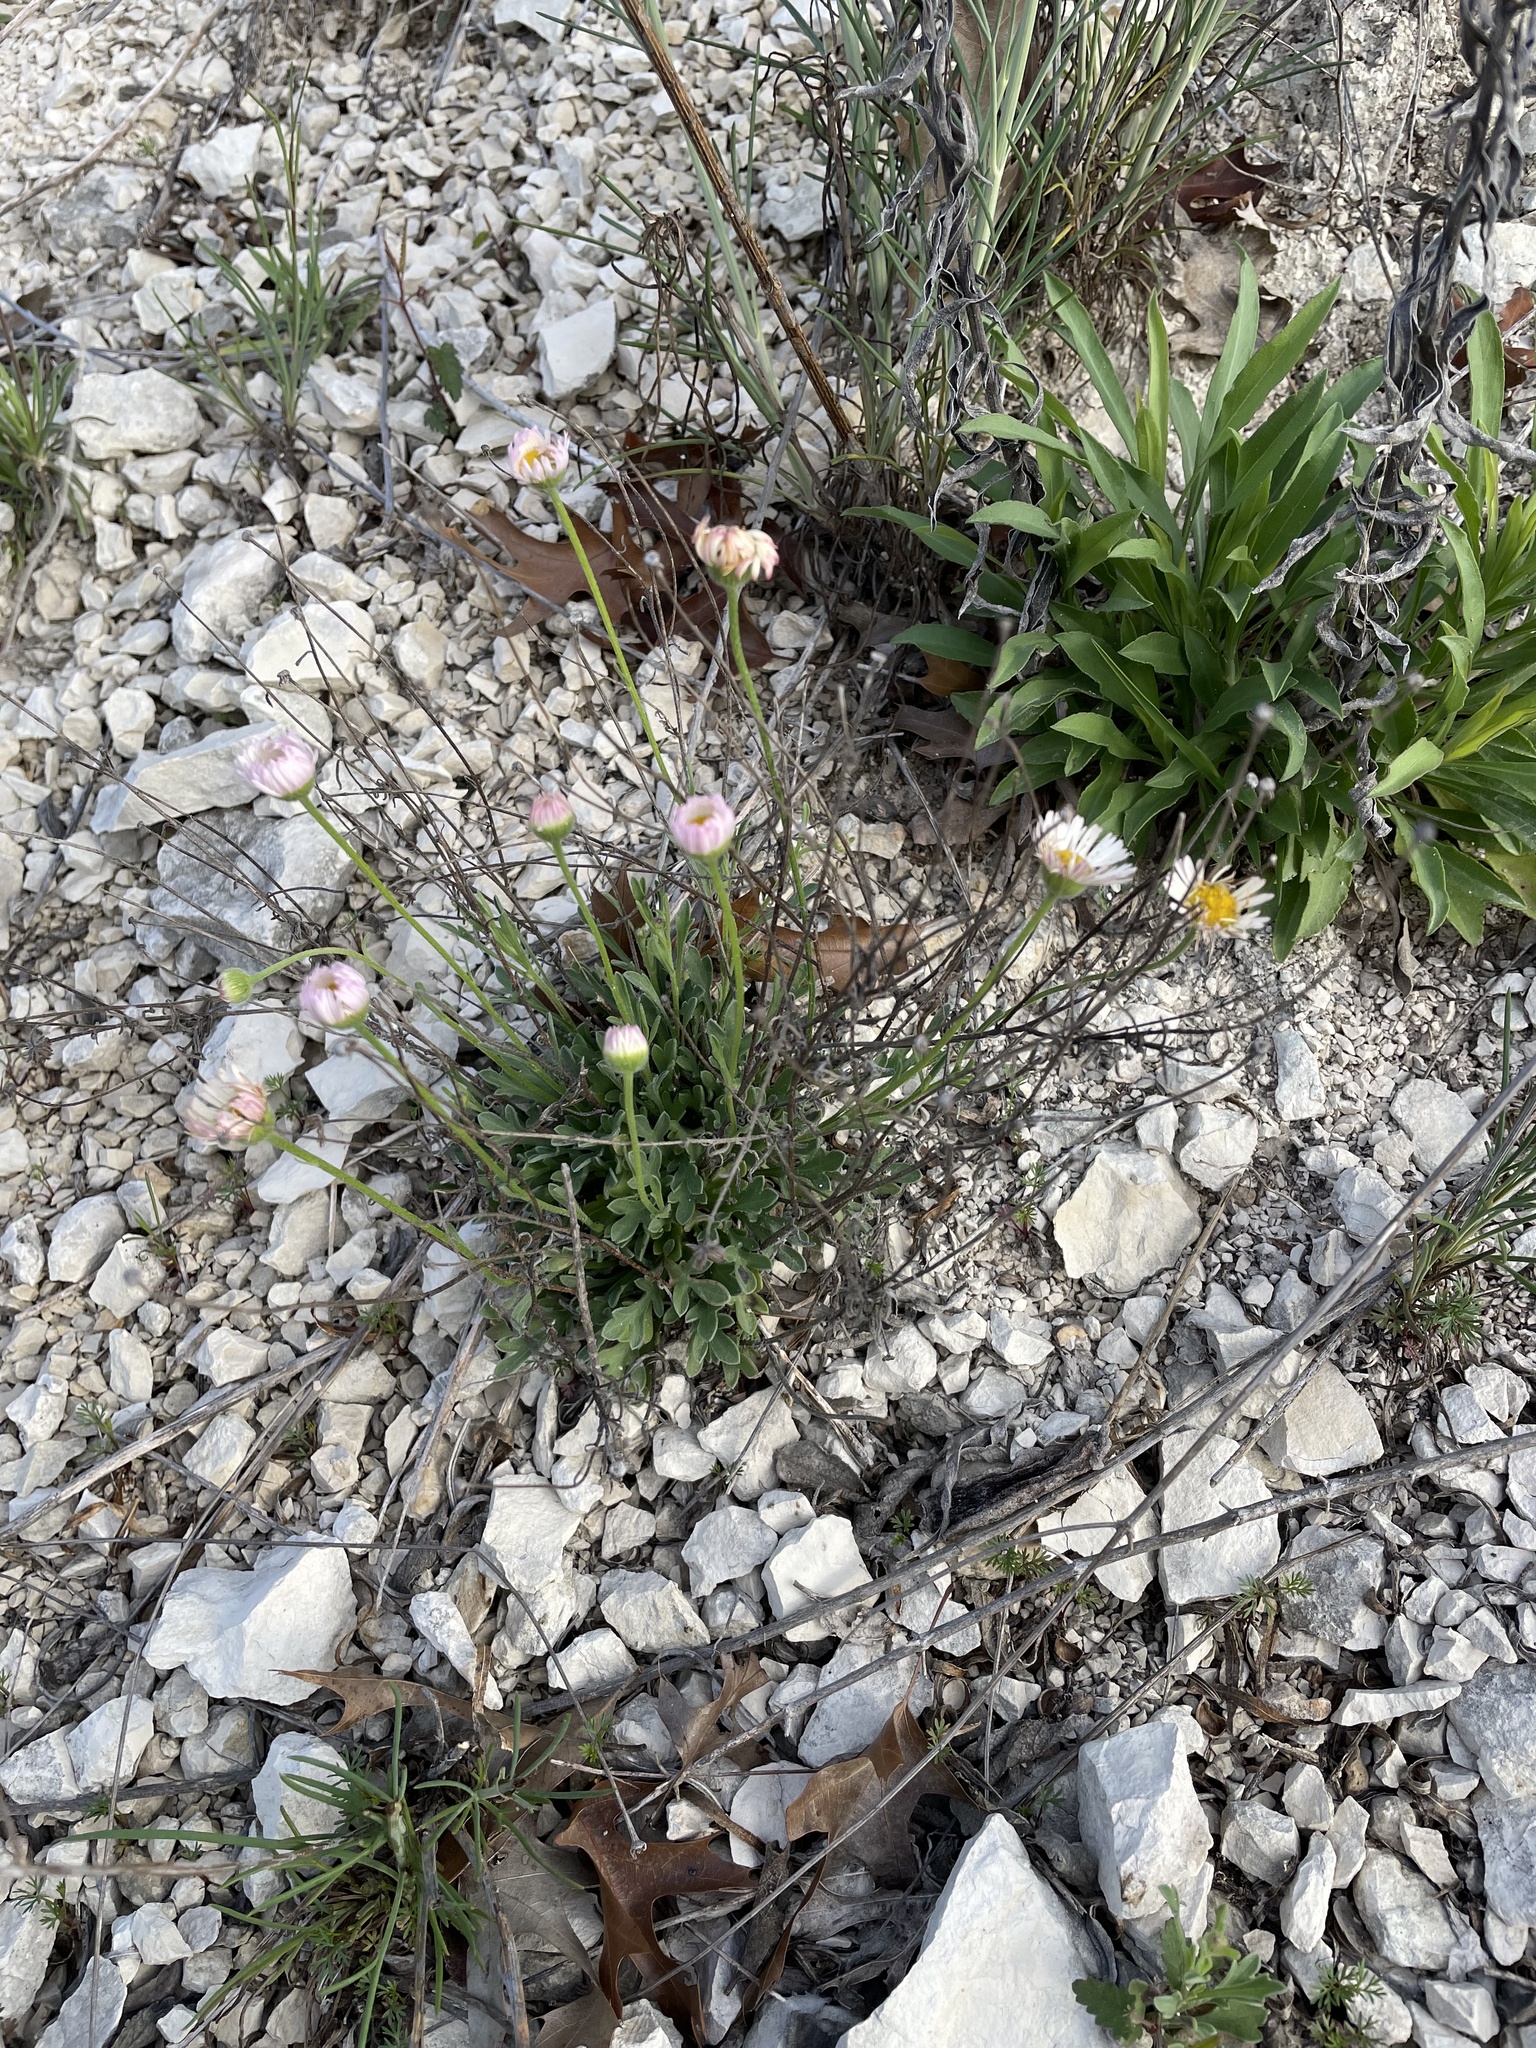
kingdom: Plantae
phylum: Tracheophyta
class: Magnoliopsida
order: Asterales
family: Asteraceae
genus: Erigeron
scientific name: Erigeron modestus
